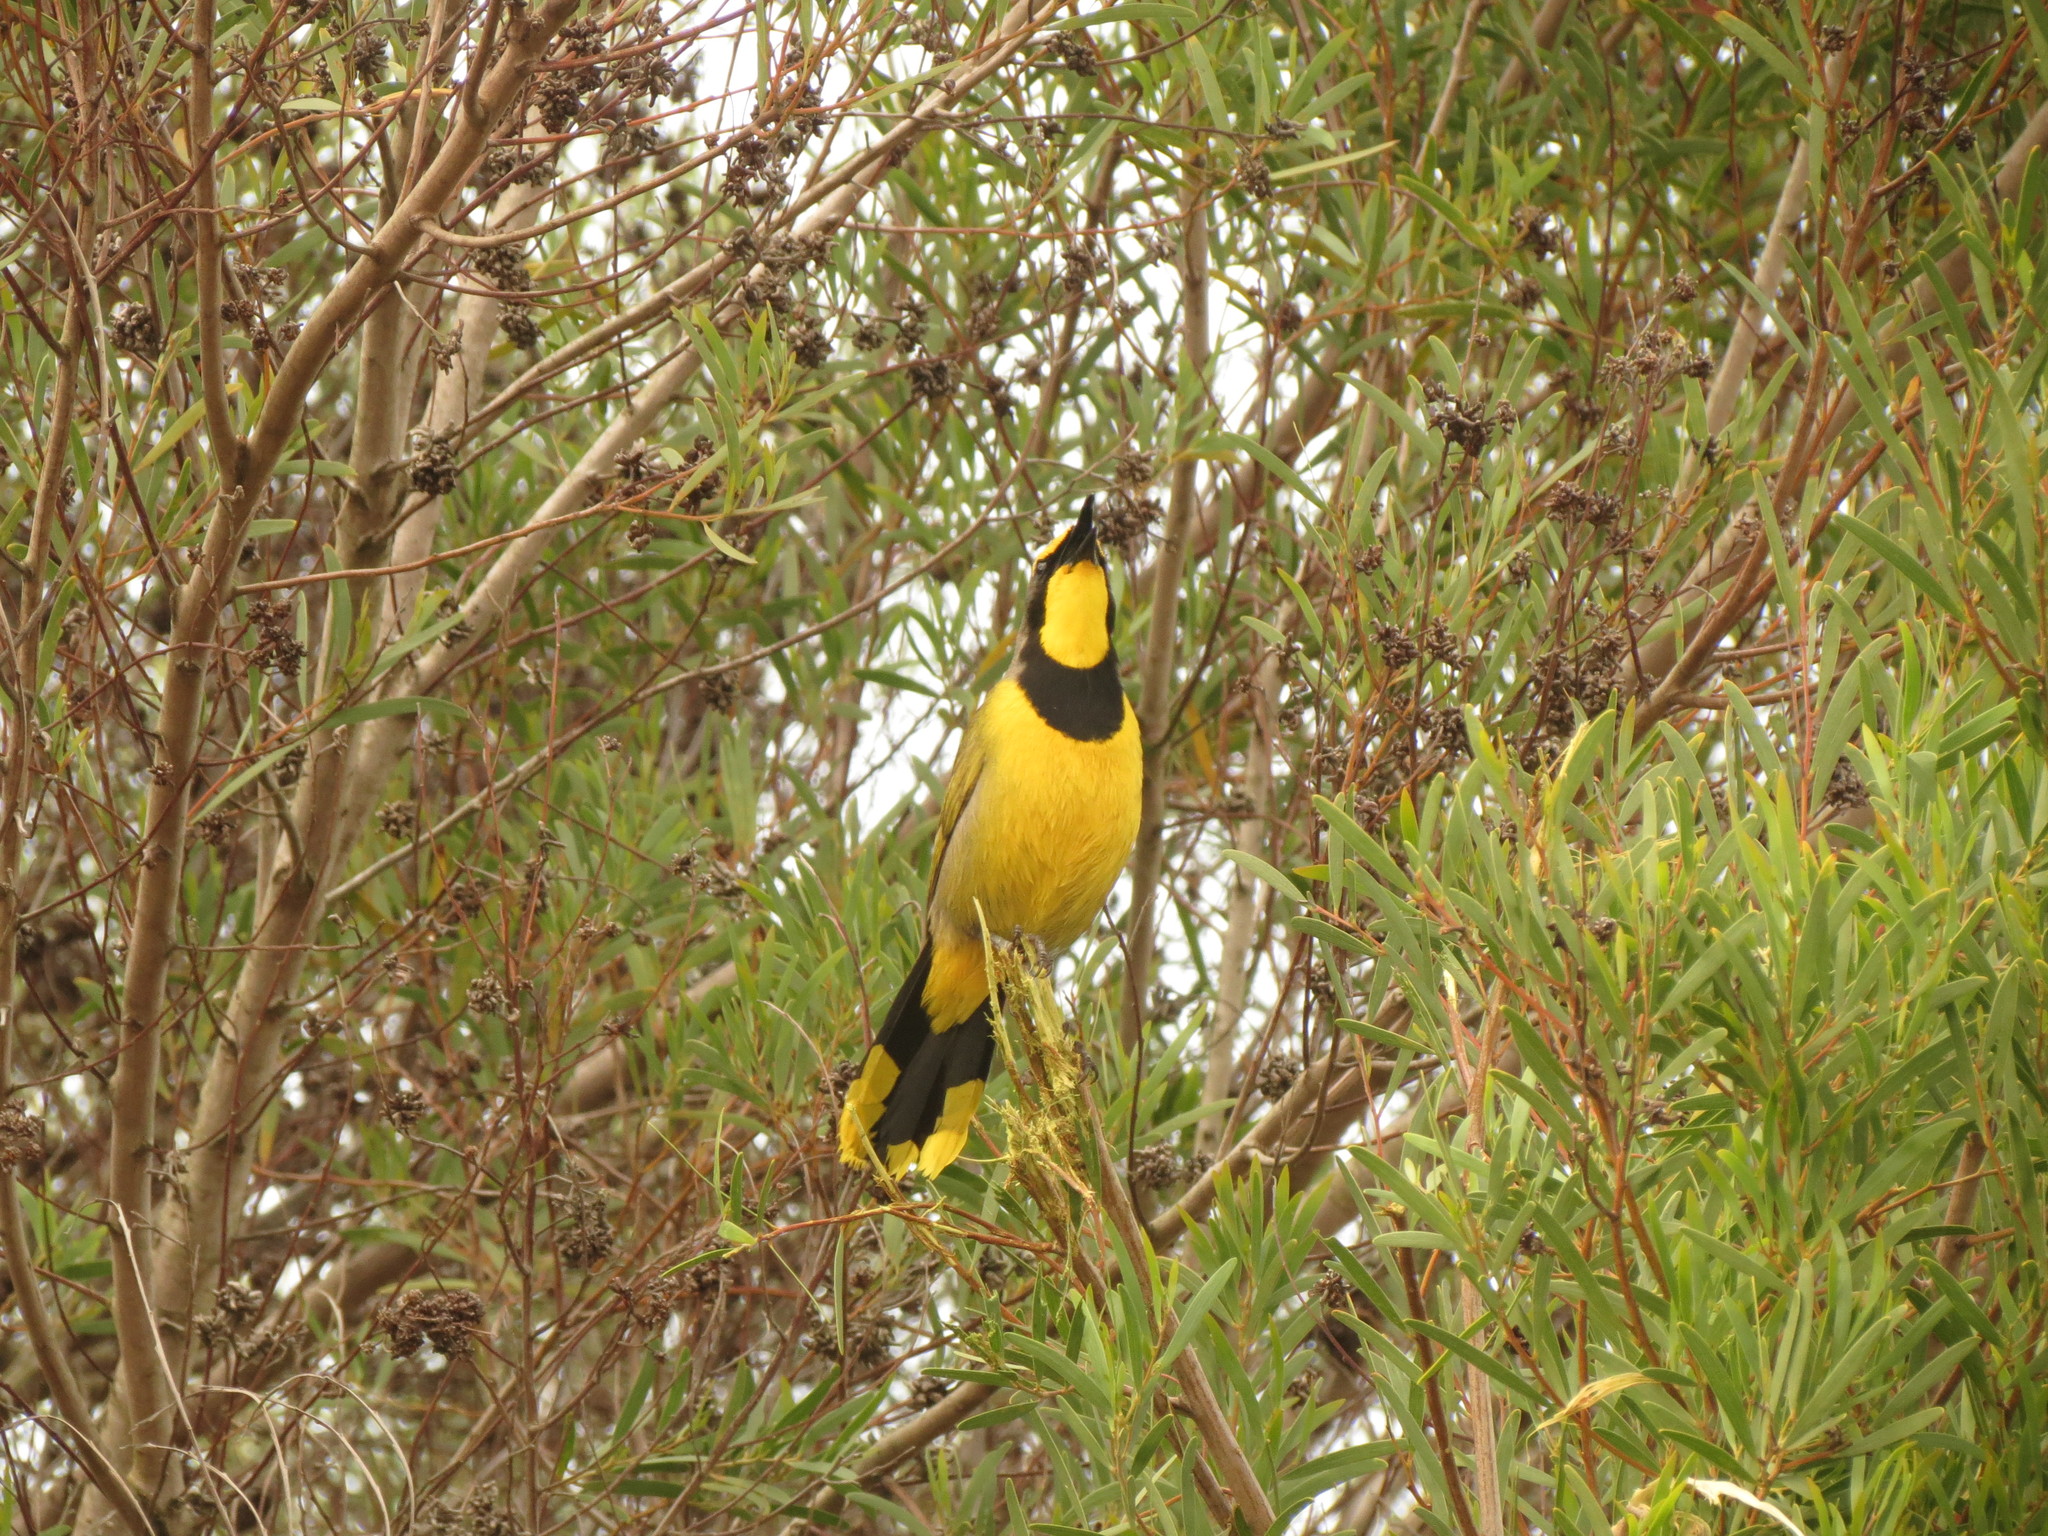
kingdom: Animalia
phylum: Chordata
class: Aves
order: Passeriformes
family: Malaconotidae
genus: Telophorus
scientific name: Telophorus zeylonus
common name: Bokmakierie
